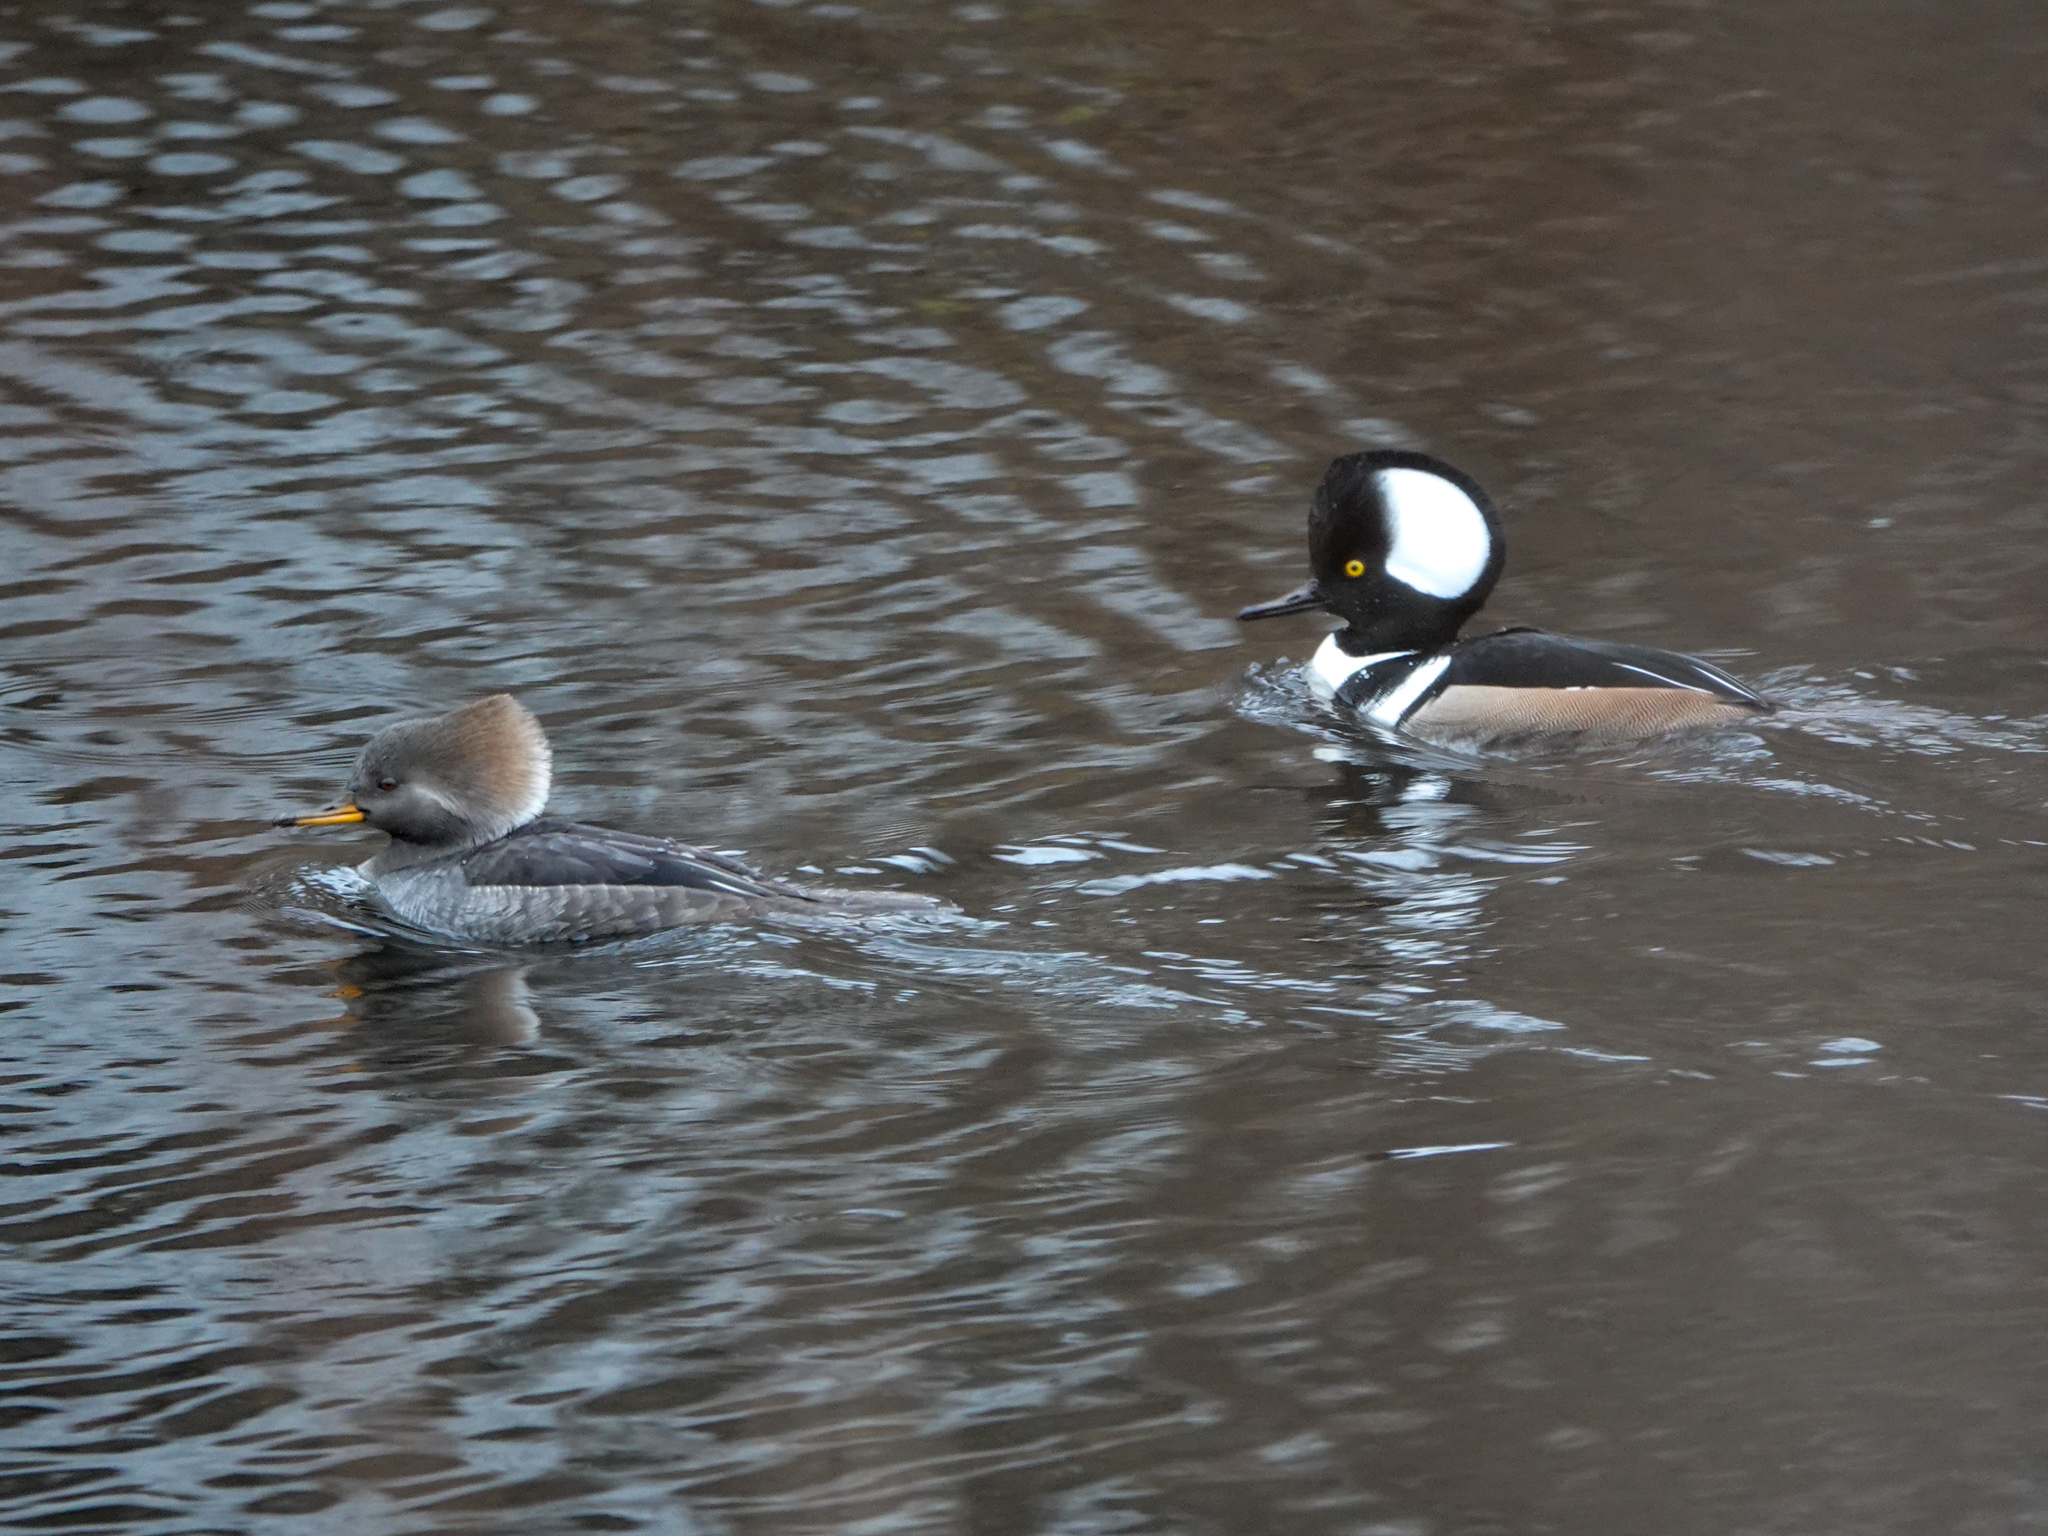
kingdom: Animalia
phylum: Chordata
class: Aves
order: Anseriformes
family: Anatidae
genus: Lophodytes
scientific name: Lophodytes cucullatus
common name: Hooded merganser
